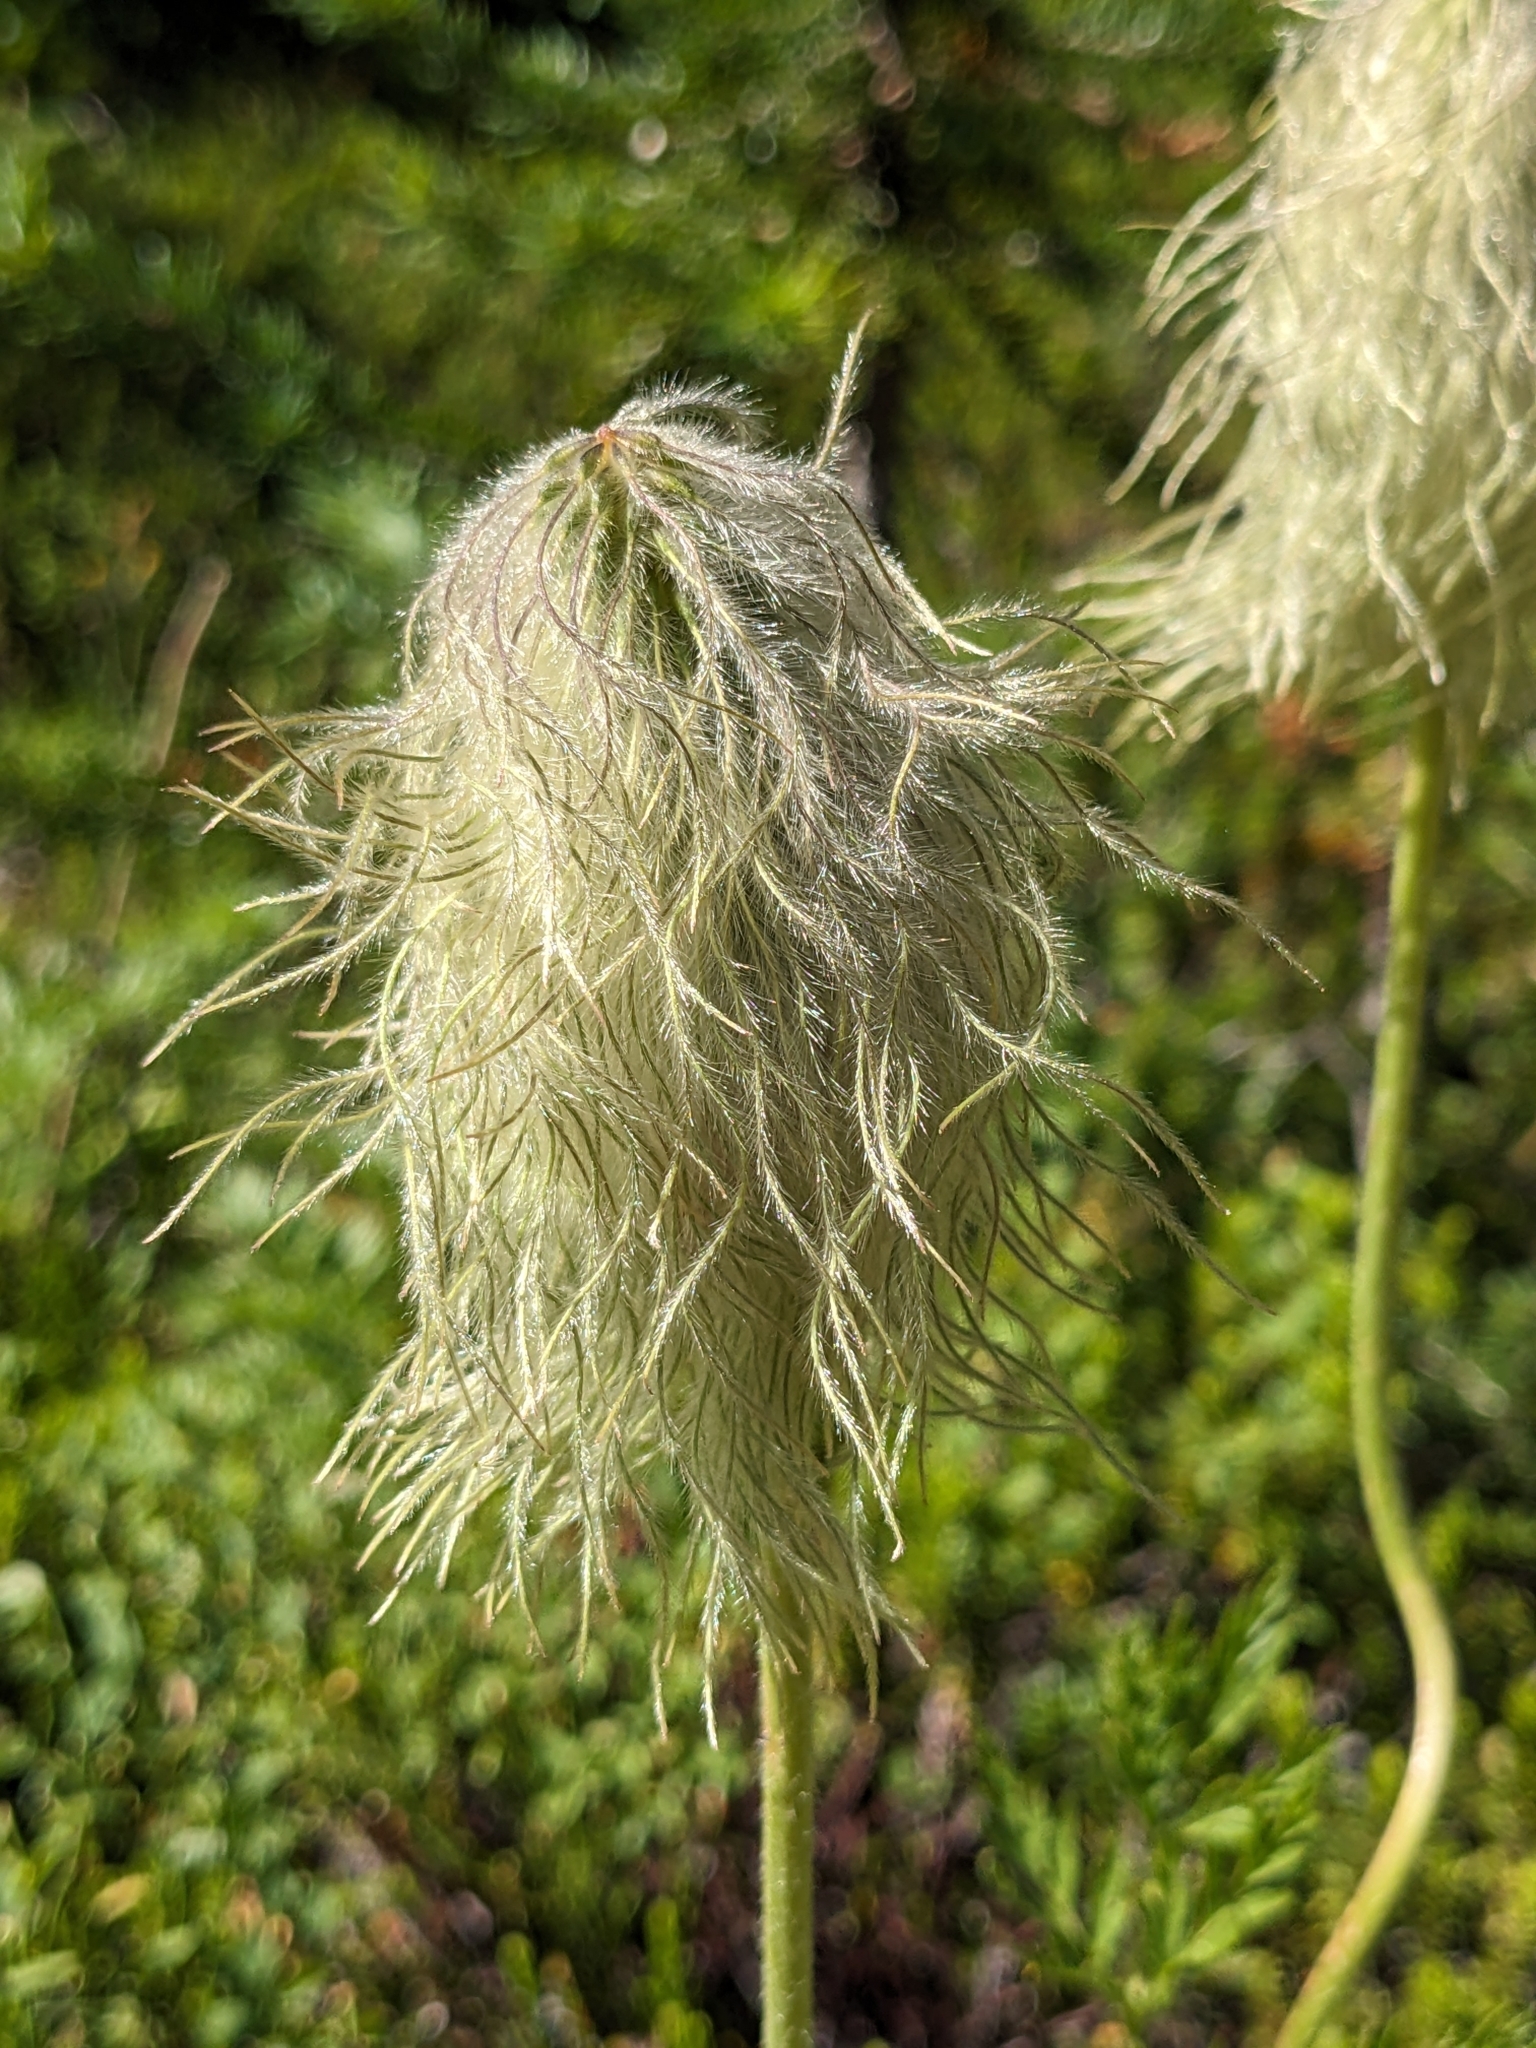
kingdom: Plantae
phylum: Tracheophyta
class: Magnoliopsida
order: Ranunculales
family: Ranunculaceae
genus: Pulsatilla
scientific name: Pulsatilla occidentalis
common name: Mountain pasqueflower
